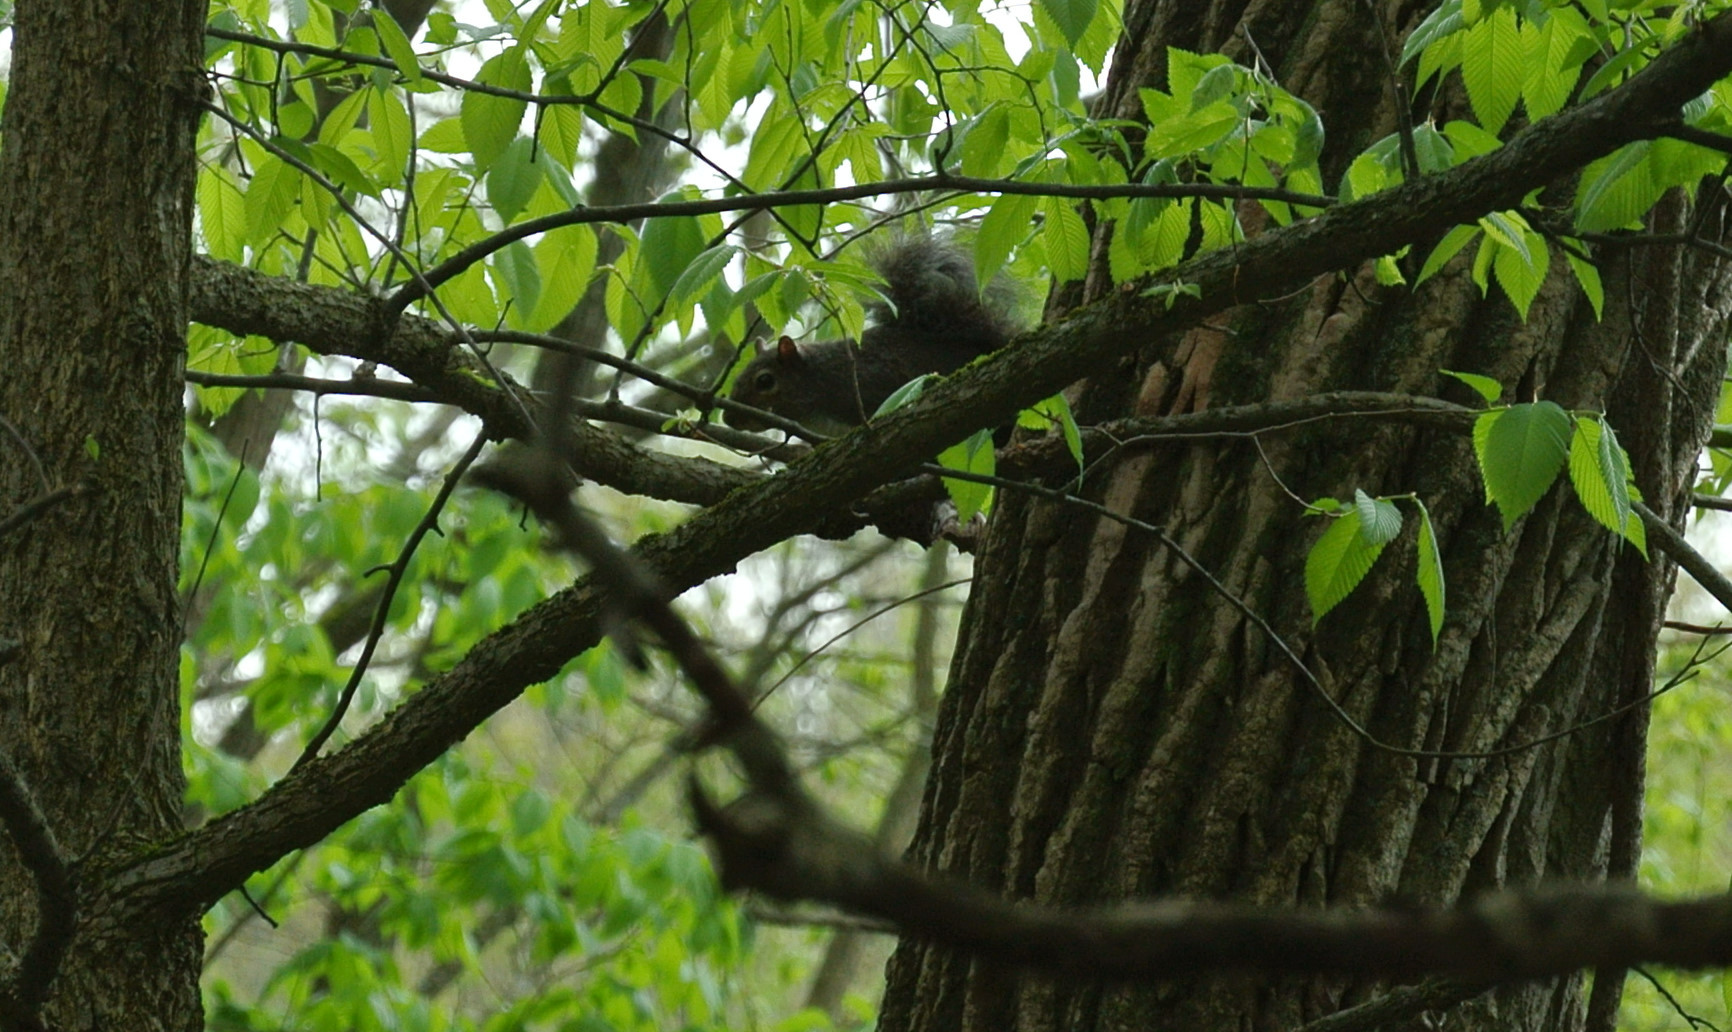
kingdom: Animalia
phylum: Chordata
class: Mammalia
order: Rodentia
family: Sciuridae
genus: Sciurus
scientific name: Sciurus carolinensis
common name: Eastern gray squirrel
